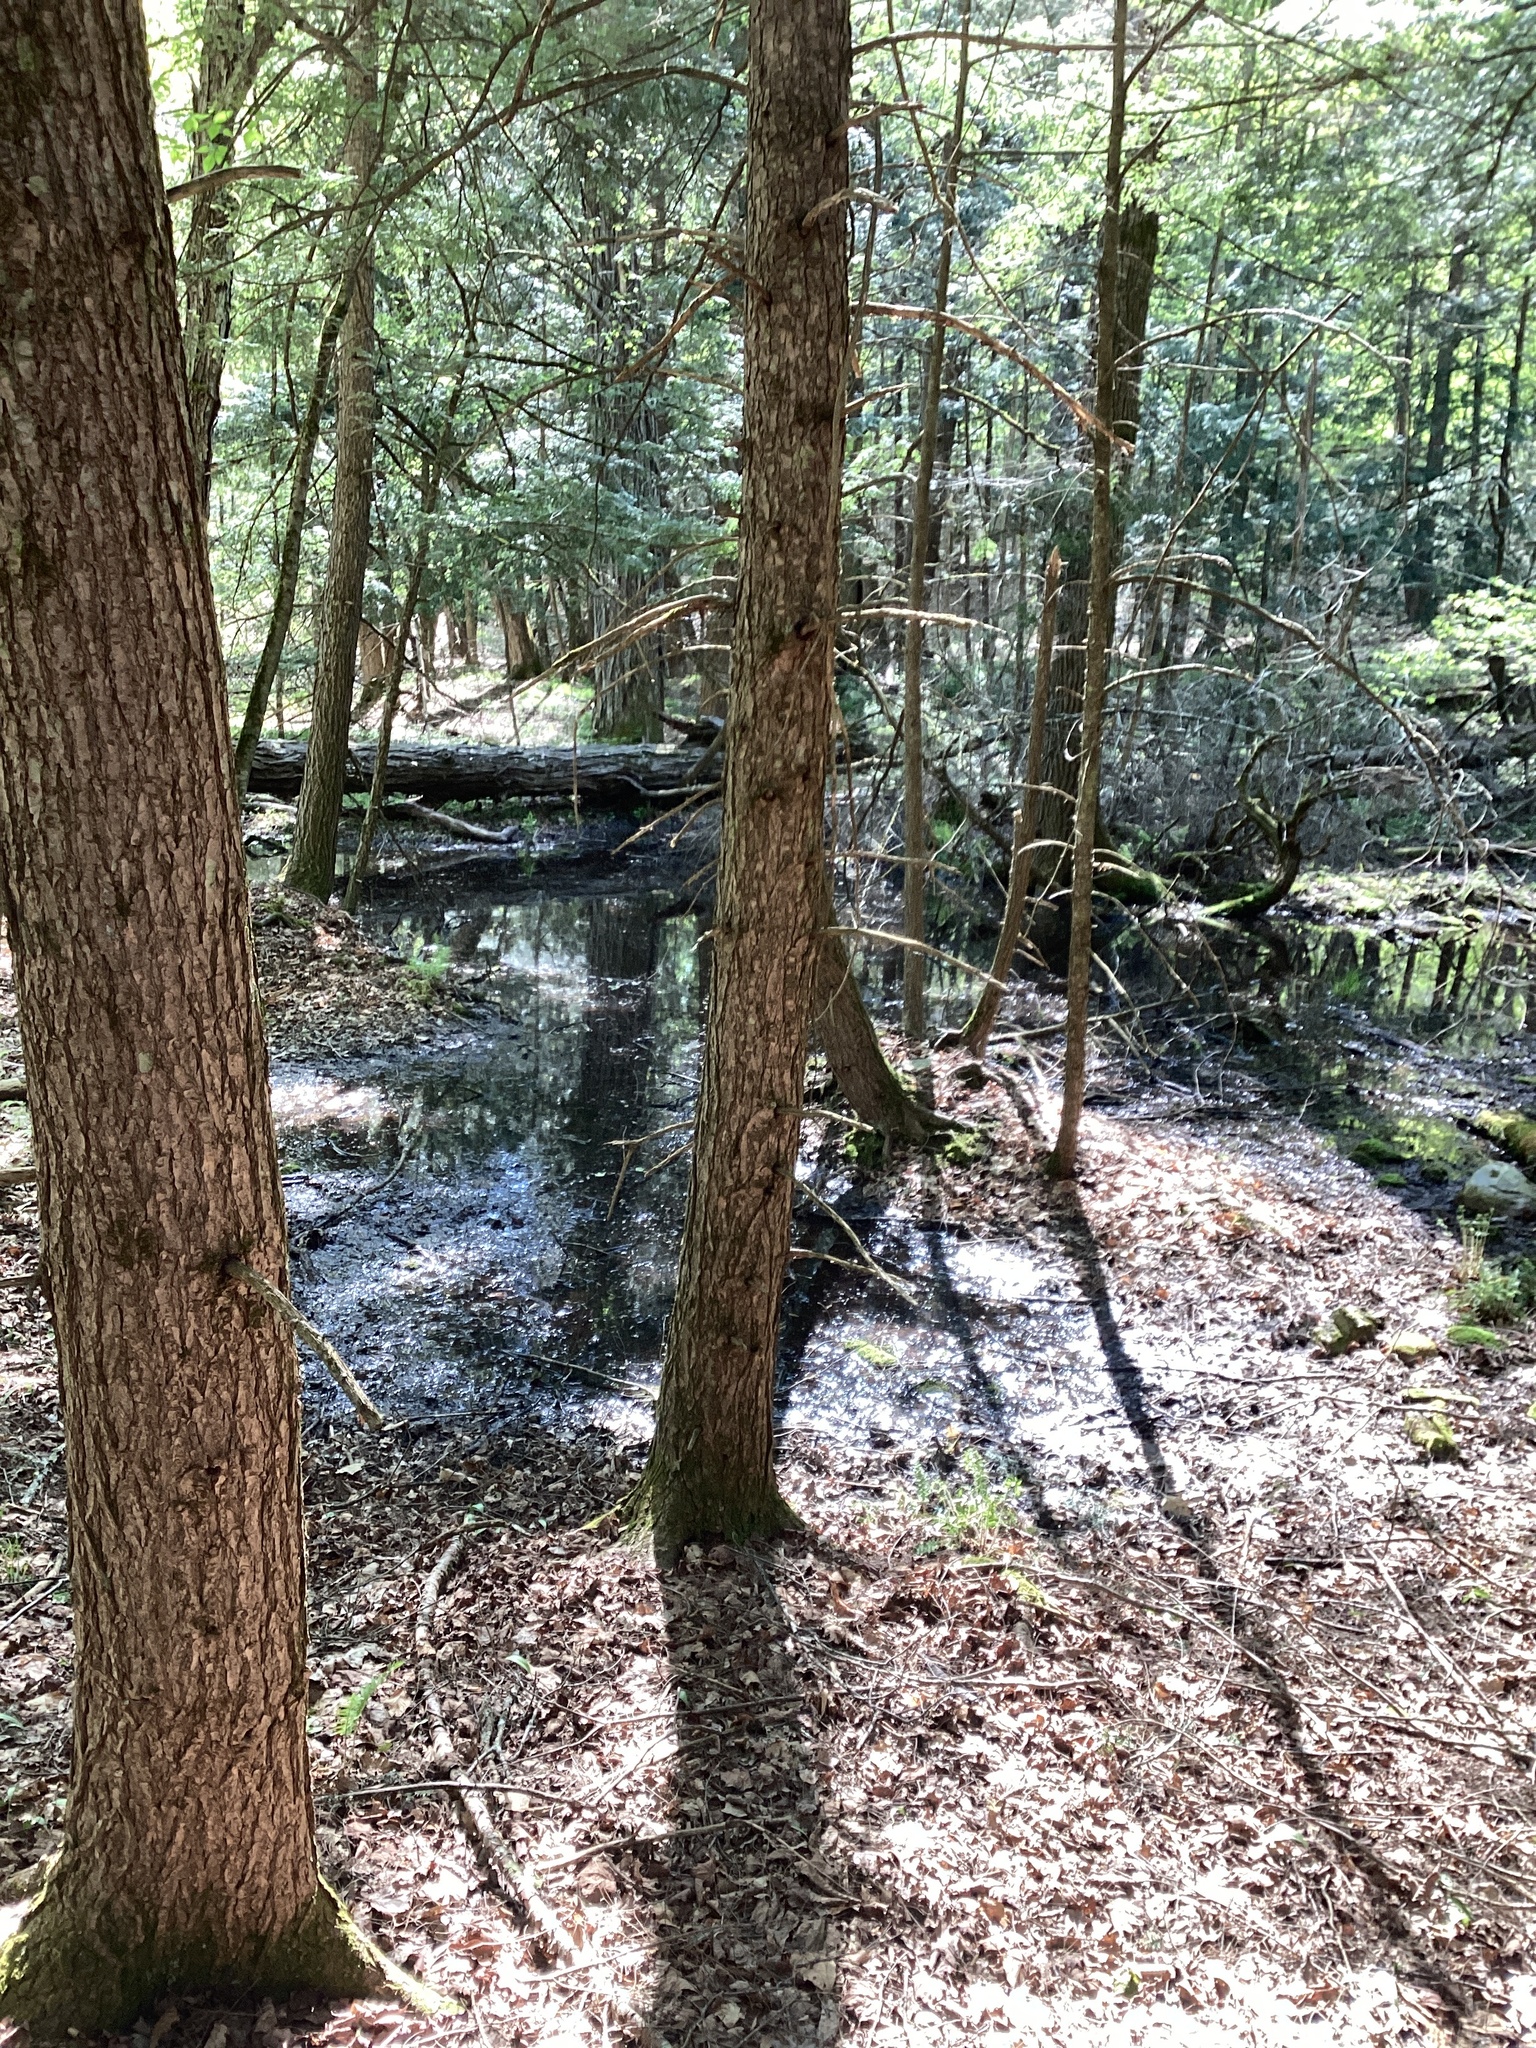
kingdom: Plantae
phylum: Tracheophyta
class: Pinopsida
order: Pinales
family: Pinaceae
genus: Tsuga
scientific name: Tsuga canadensis
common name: Eastern hemlock
